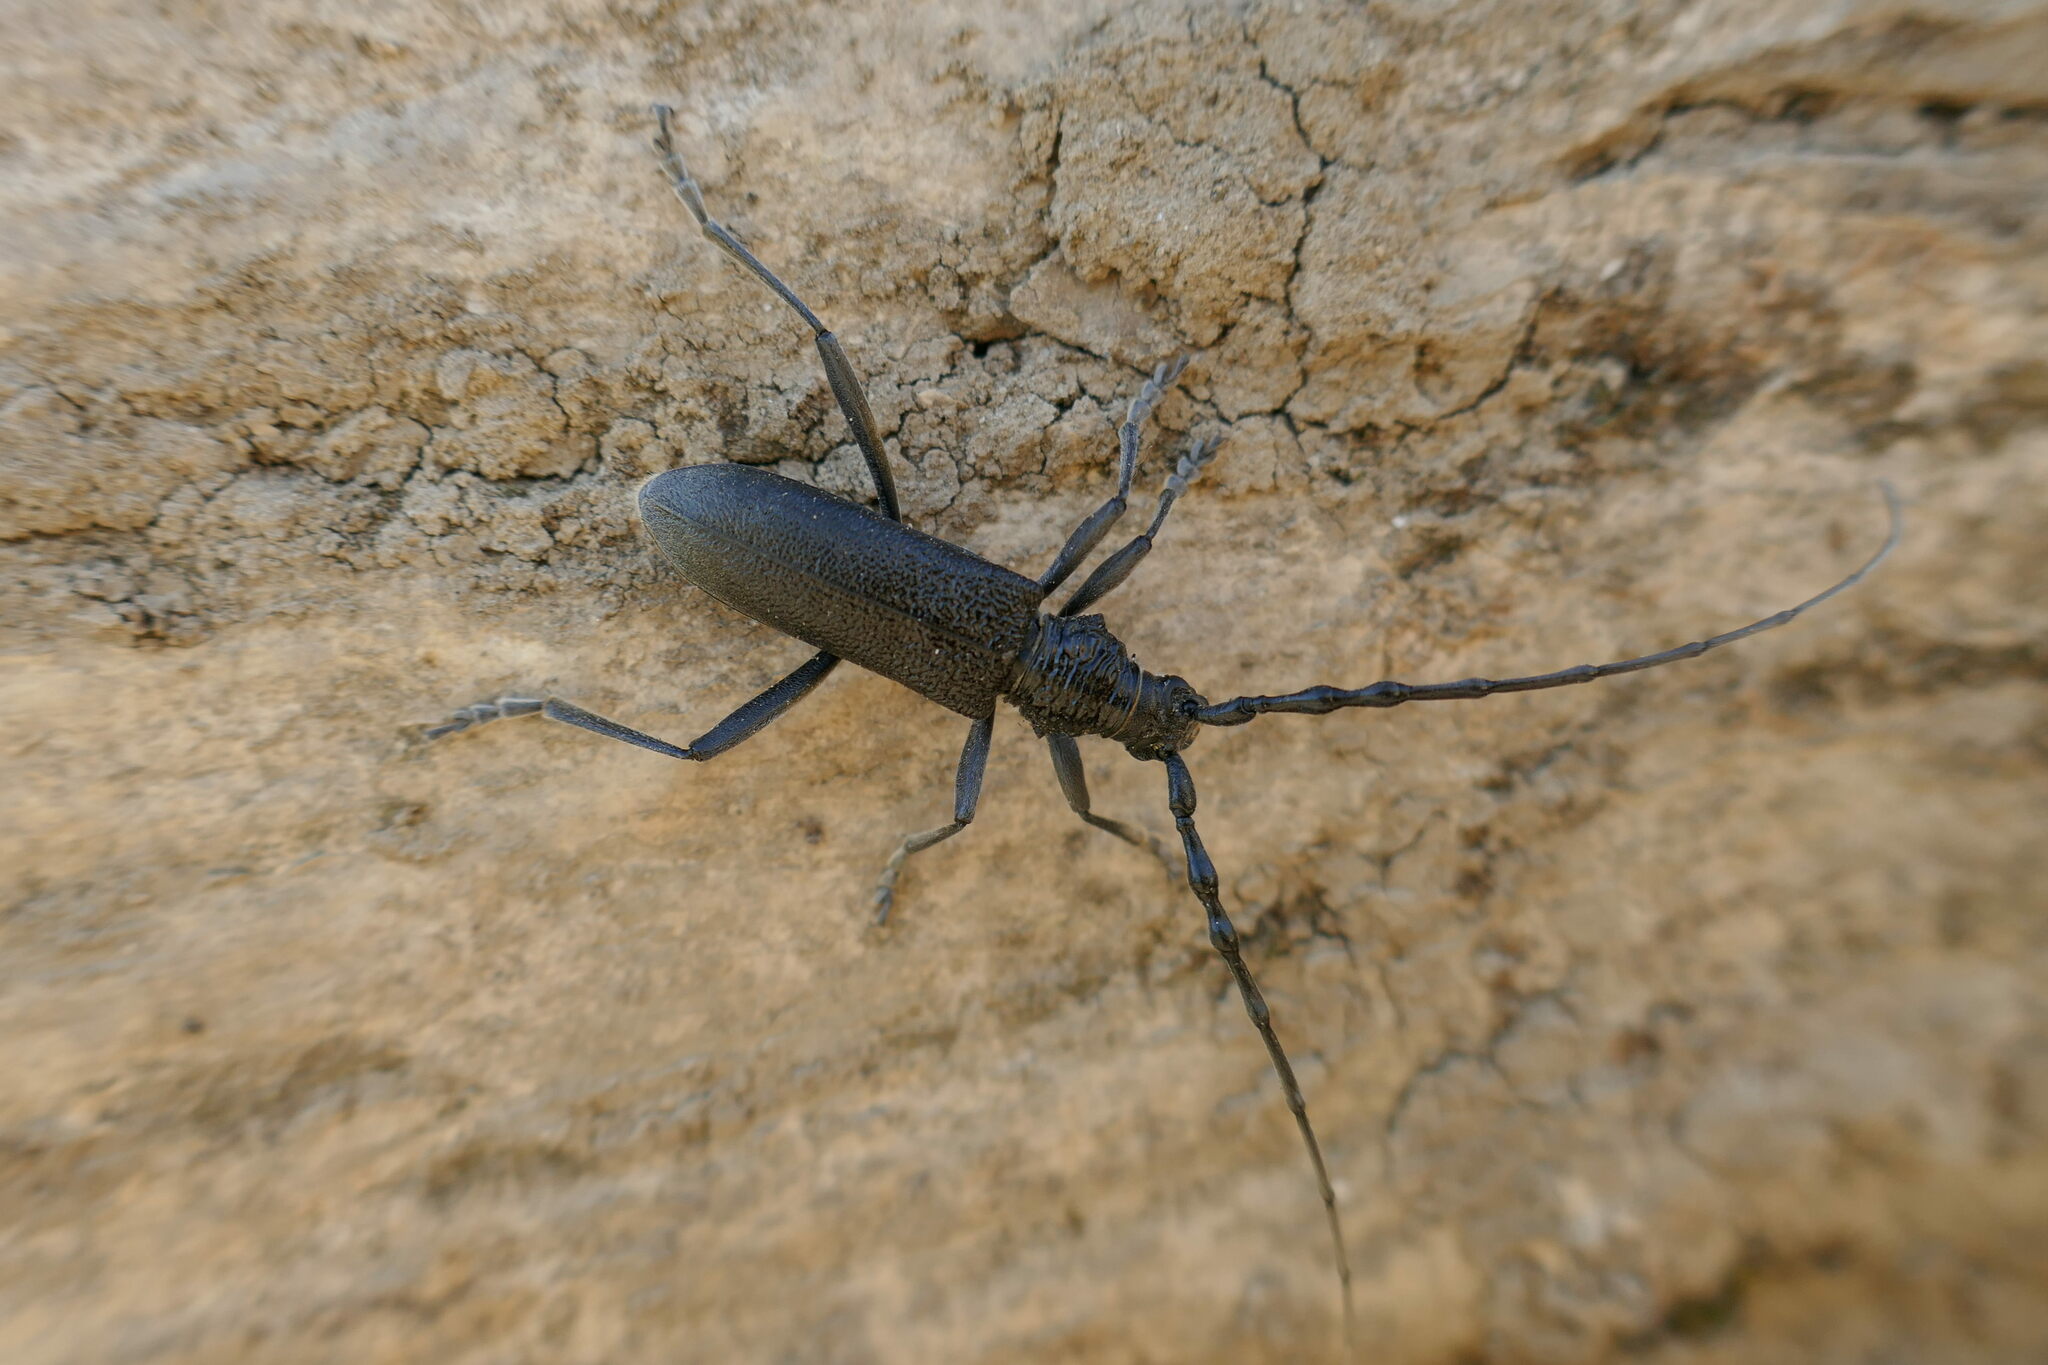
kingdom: Animalia
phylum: Arthropoda
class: Insecta
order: Coleoptera
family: Cerambycidae
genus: Cerambyx
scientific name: Cerambyx scopolii
